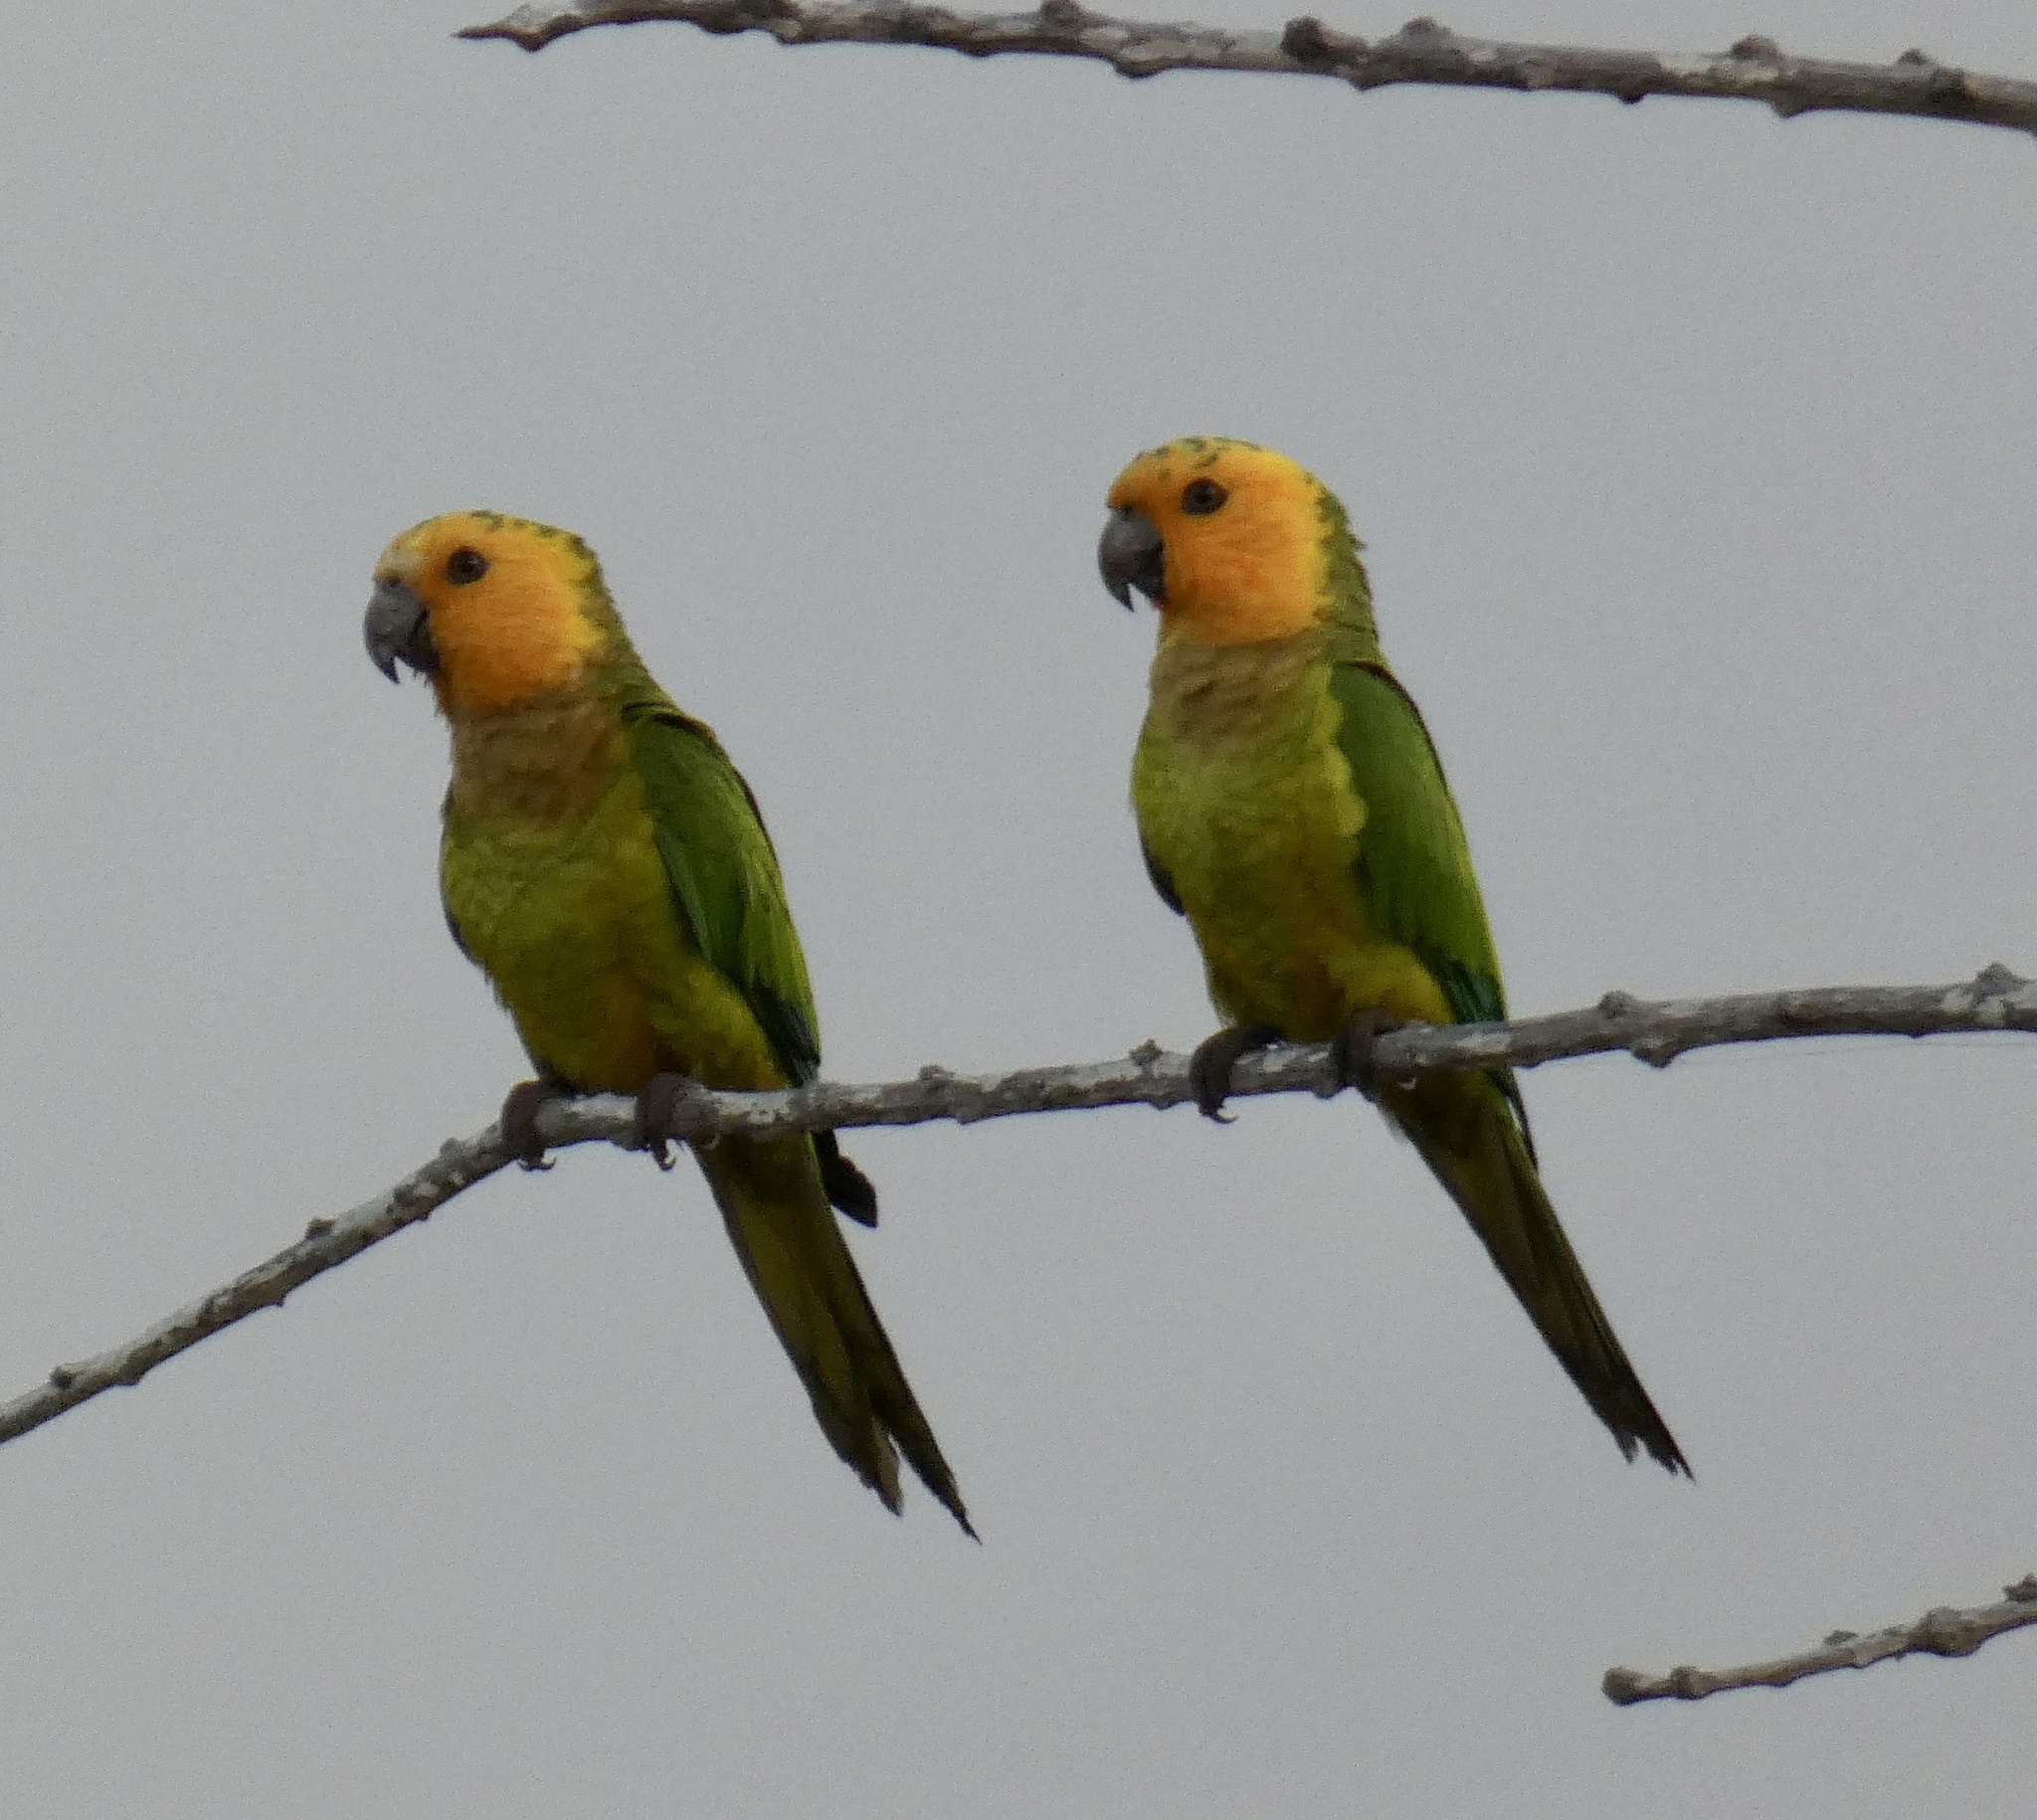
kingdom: Animalia
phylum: Chordata
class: Aves
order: Psittaciformes
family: Psittacidae
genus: Aratinga
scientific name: Aratinga pertinax
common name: Brown-throated parakeet
